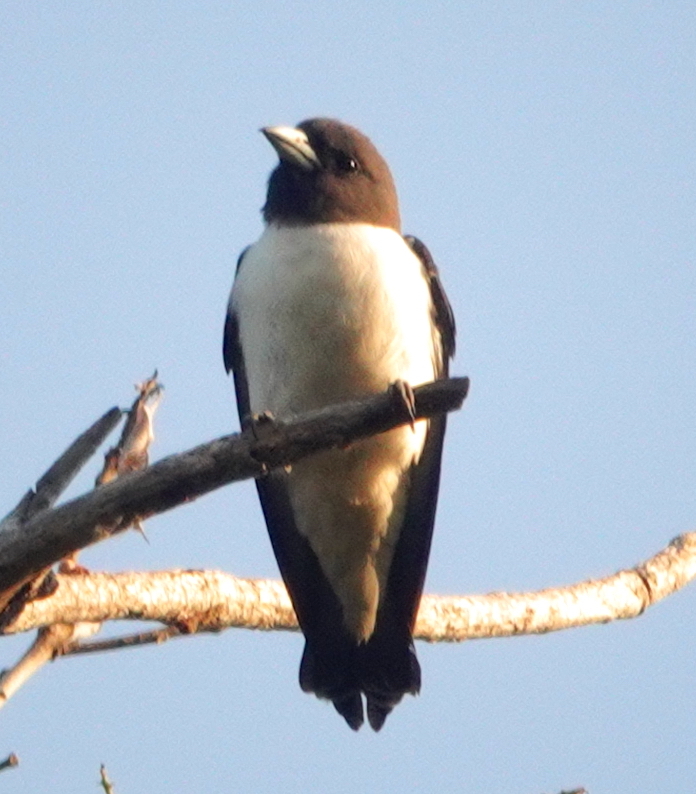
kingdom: Animalia
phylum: Chordata
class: Aves
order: Passeriformes
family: Artamidae
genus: Artamus
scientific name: Artamus leucoryn
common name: White-breasted woodswallow
